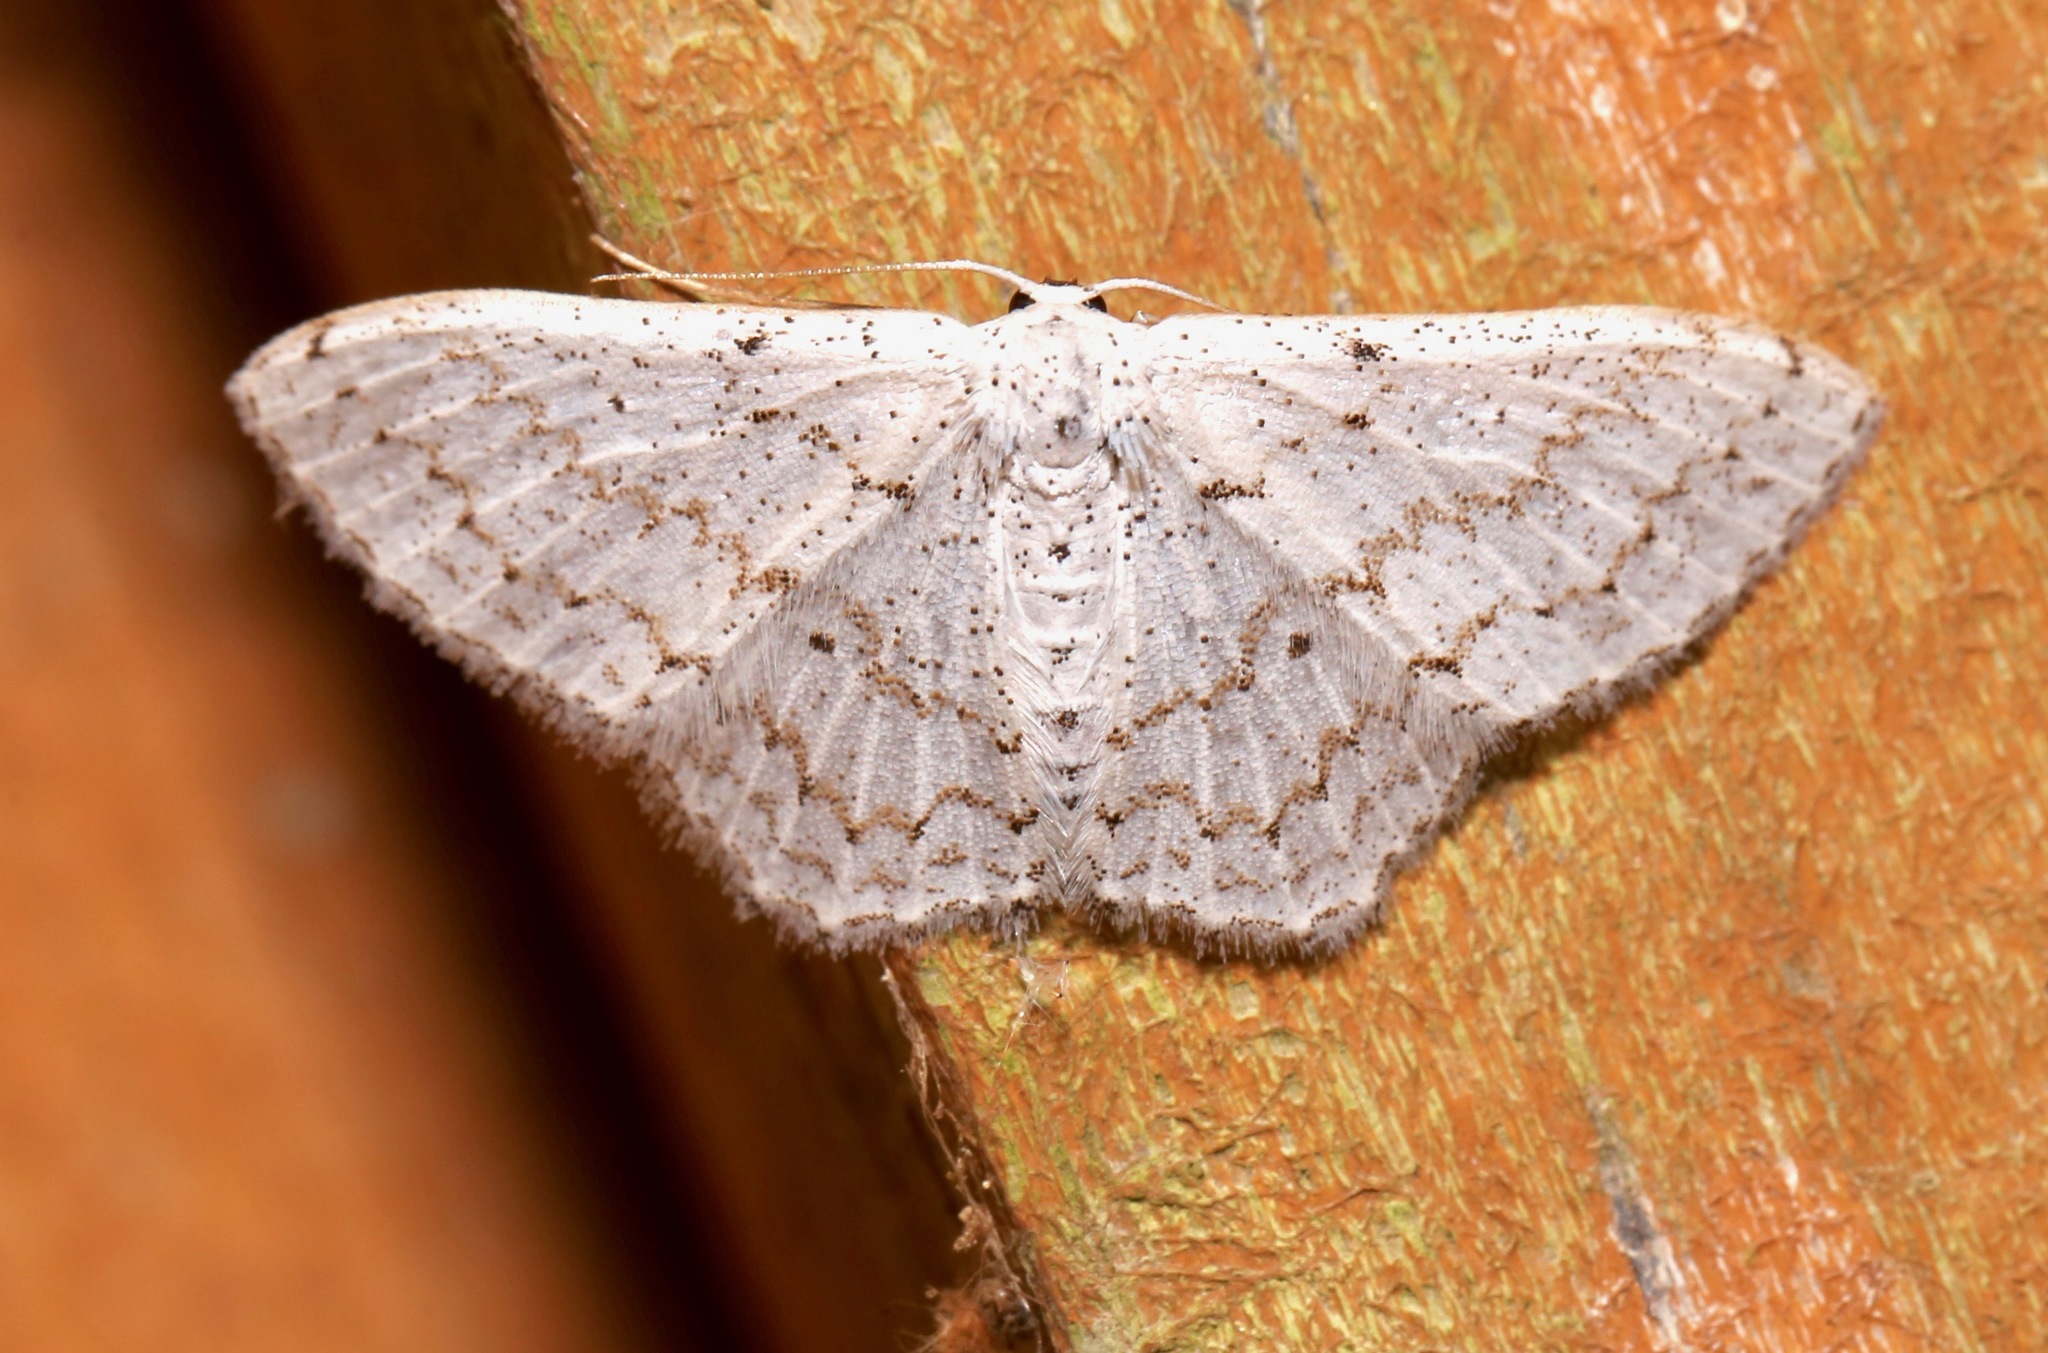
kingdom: Animalia
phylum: Arthropoda
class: Insecta
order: Lepidoptera
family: Geometridae
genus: Idaea
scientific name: Idaea tacturata
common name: Dot-lined wave
